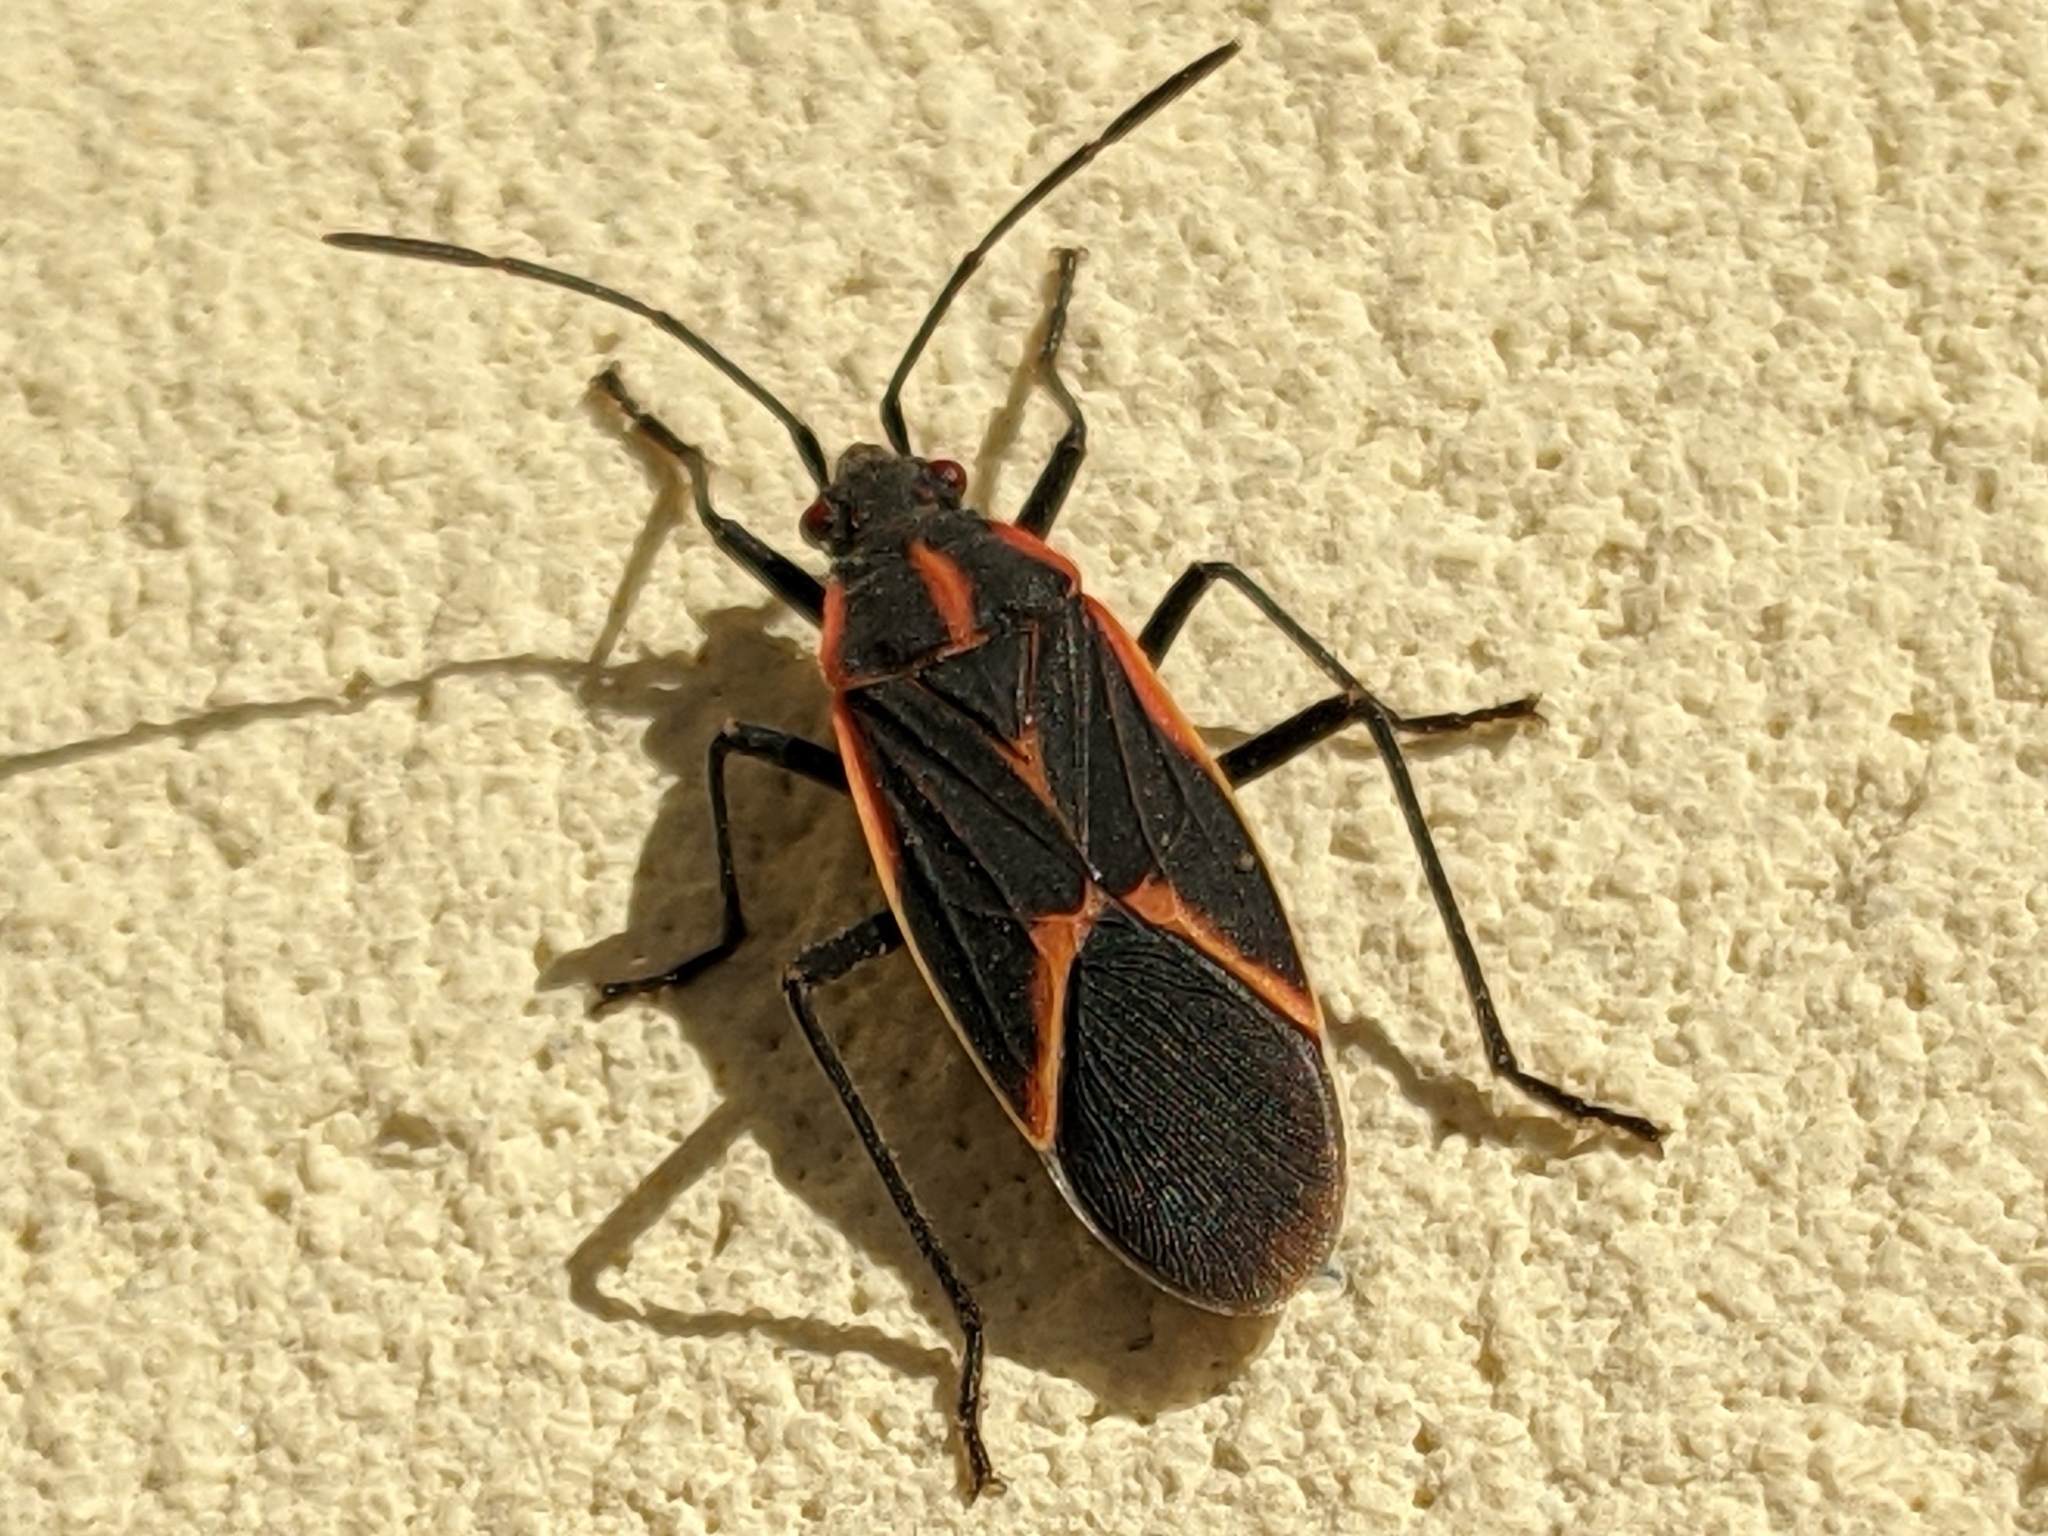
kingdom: Animalia
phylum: Arthropoda
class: Insecta
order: Hemiptera
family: Rhopalidae
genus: Boisea
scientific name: Boisea trivittata
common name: Boxelder bug
